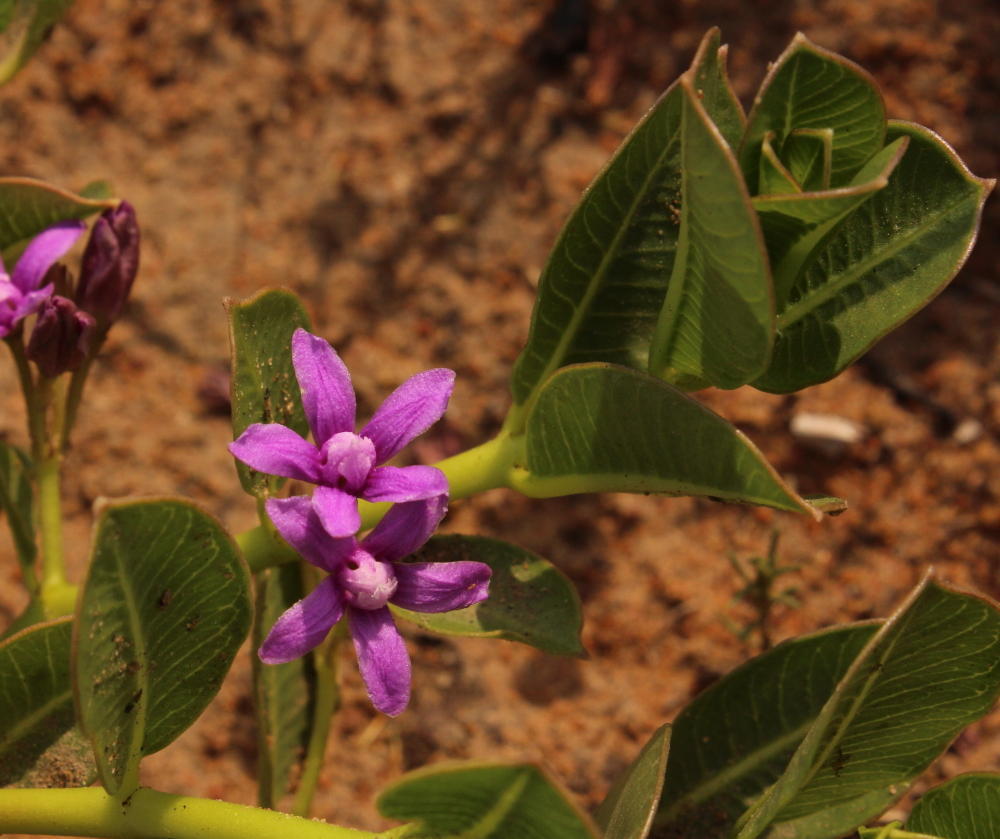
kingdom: Plantae
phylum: Tracheophyta
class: Magnoliopsida
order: Gentianales
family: Apocynaceae
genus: Raphionacme
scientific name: Raphionacme hirsuta
